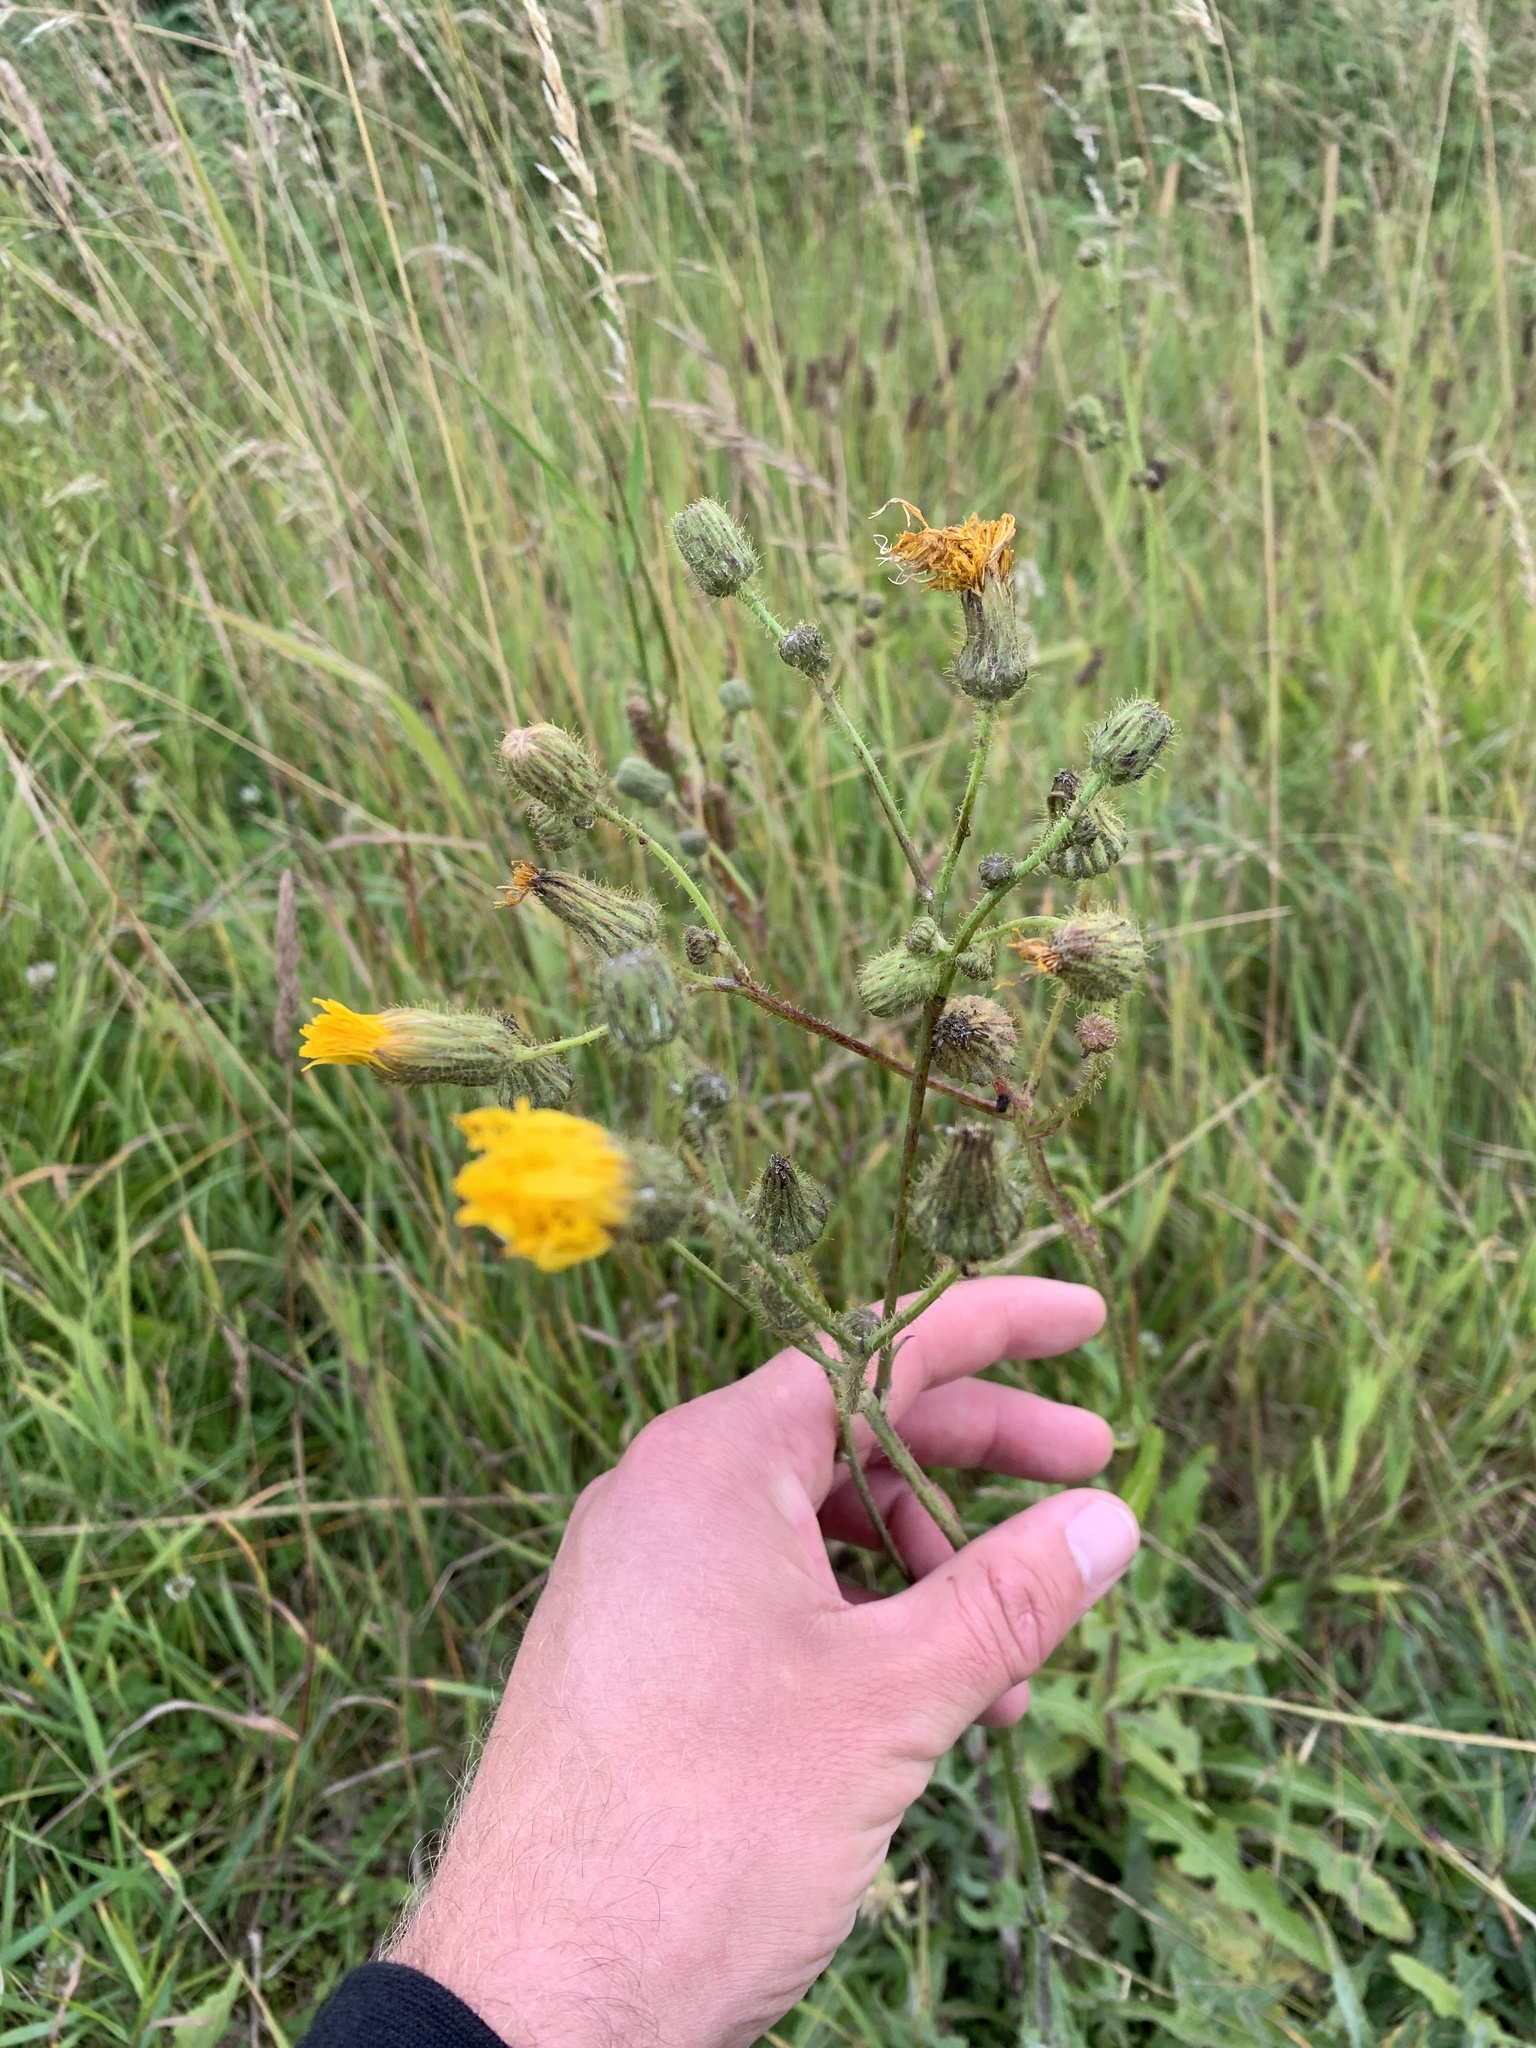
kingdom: Plantae
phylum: Tracheophyta
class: Magnoliopsida
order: Asterales
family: Asteraceae
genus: Sonchus
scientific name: Sonchus arvensis
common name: Perennial sow-thistle
